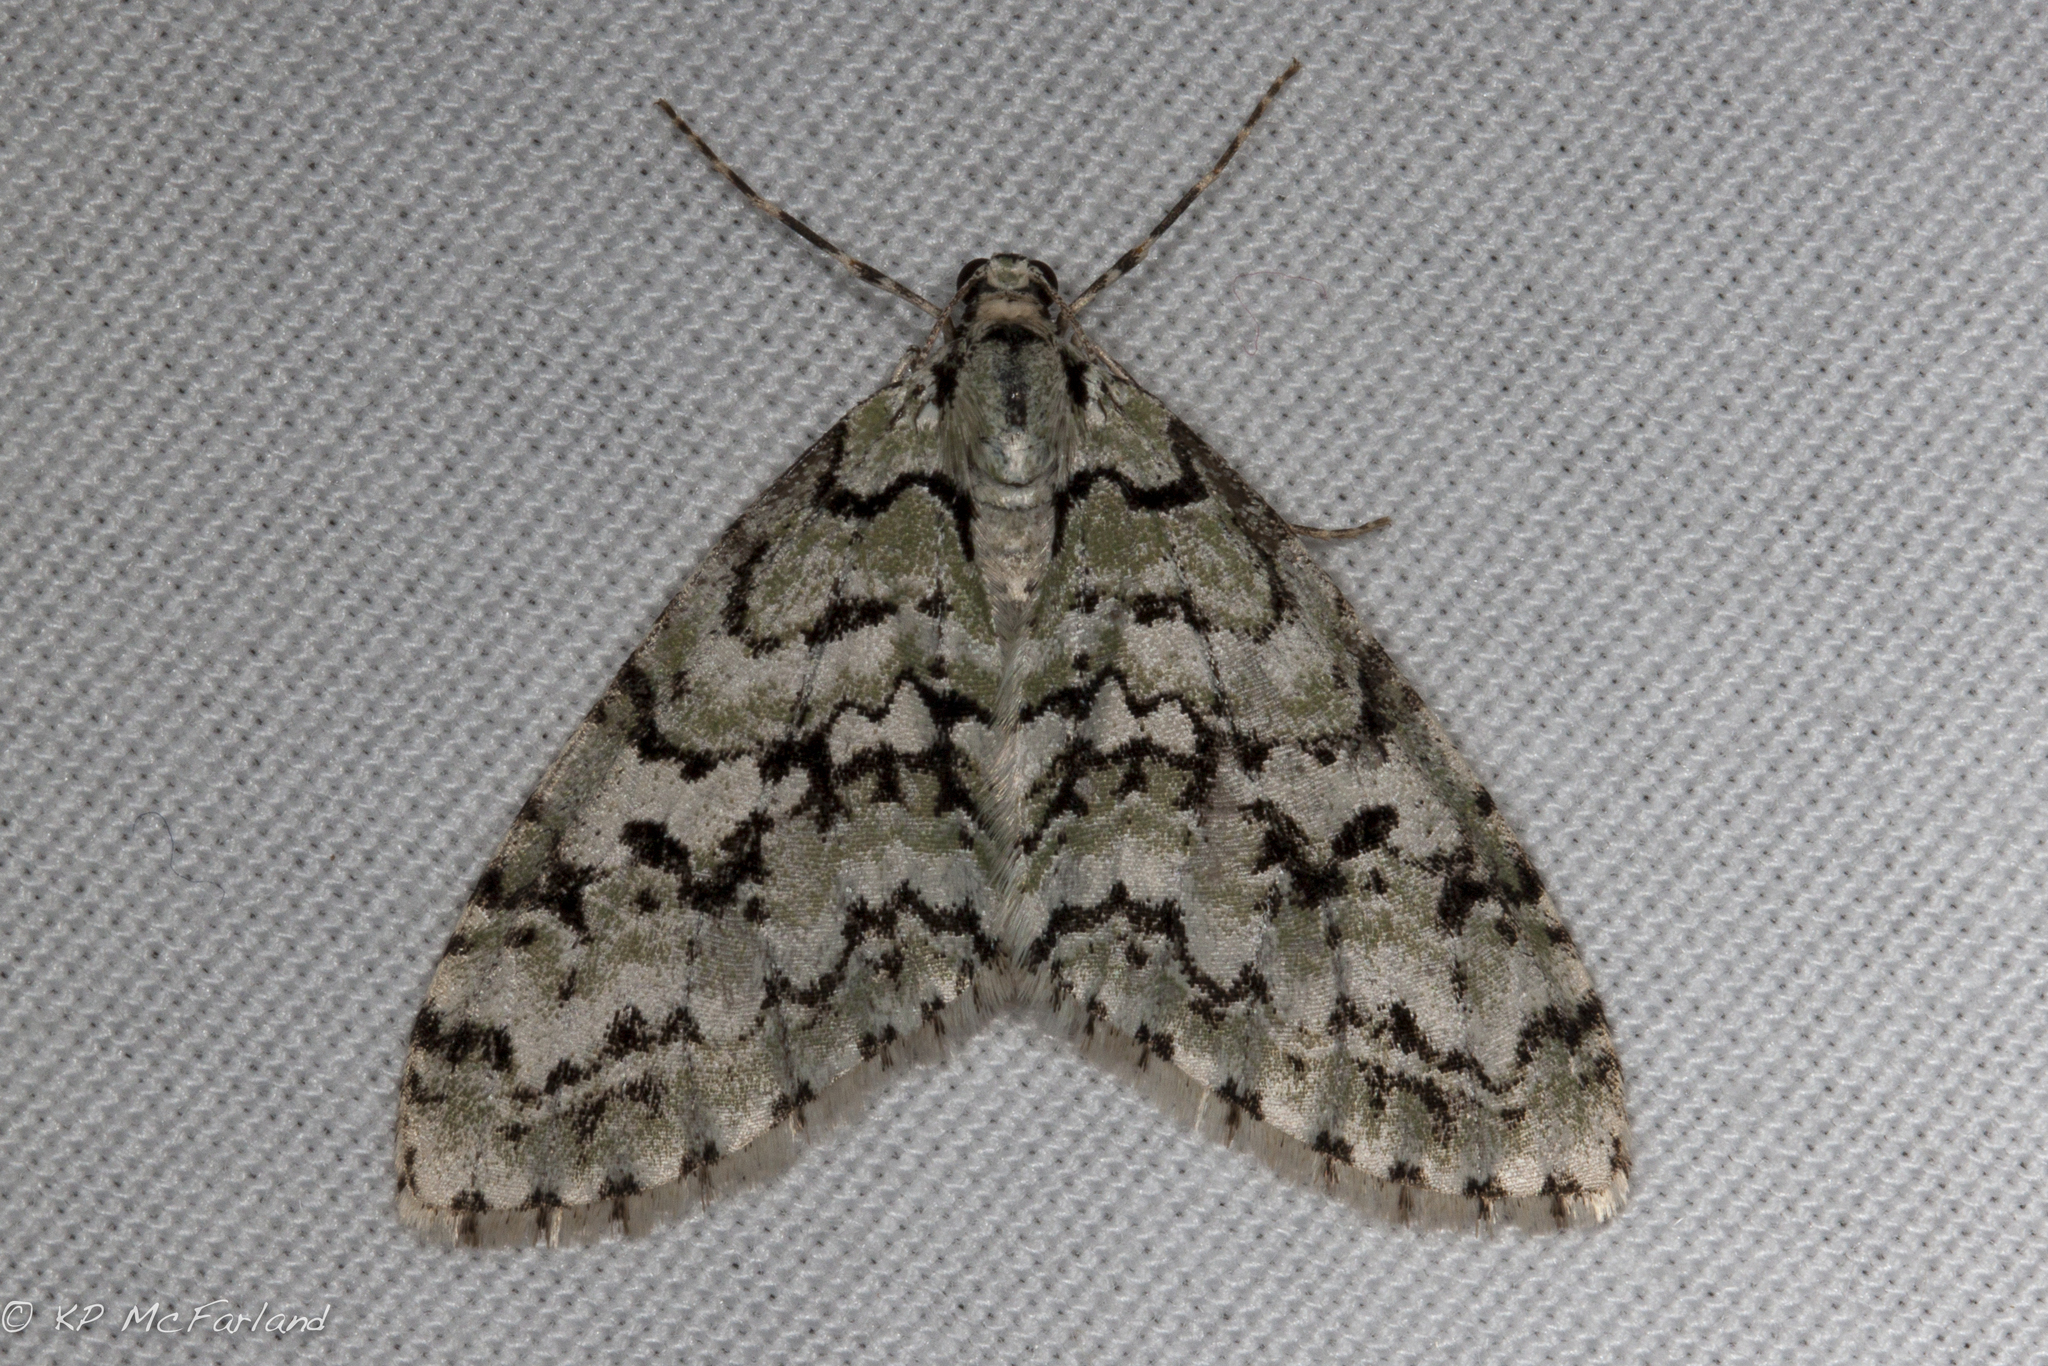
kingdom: Animalia
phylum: Arthropoda
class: Insecta
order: Lepidoptera
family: Geometridae
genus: Cladara
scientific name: Cladara atroliturata
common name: Scribbler
